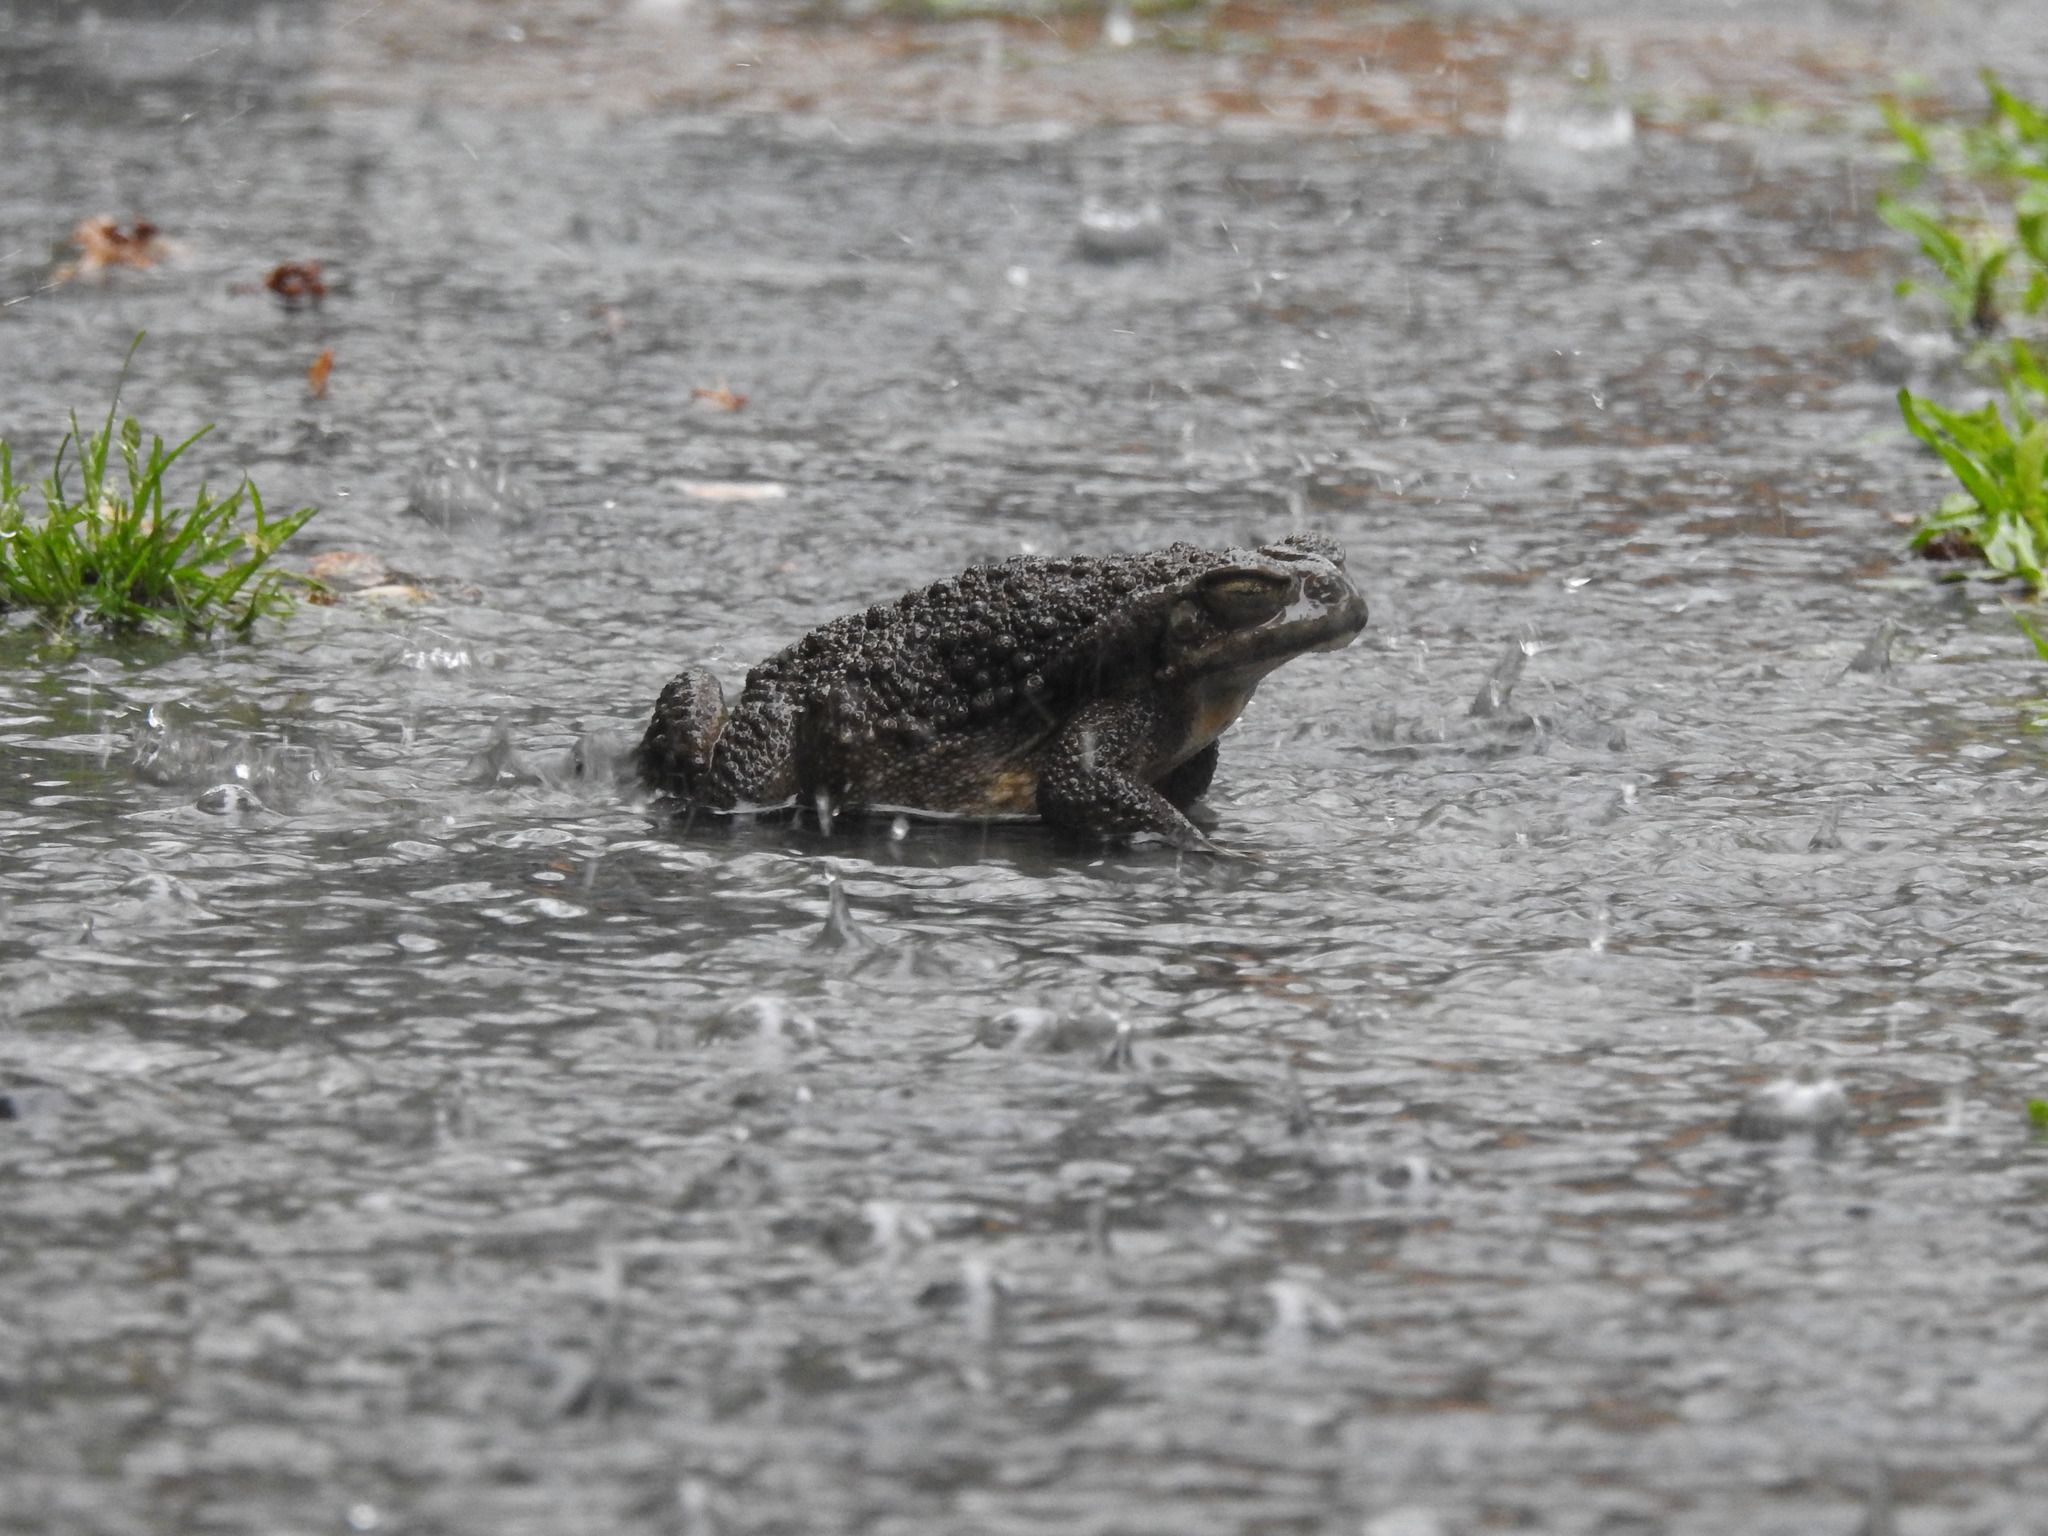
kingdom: Animalia
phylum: Chordata
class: Amphibia
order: Anura
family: Bufonidae
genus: Rhinella
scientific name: Rhinella arenarum
